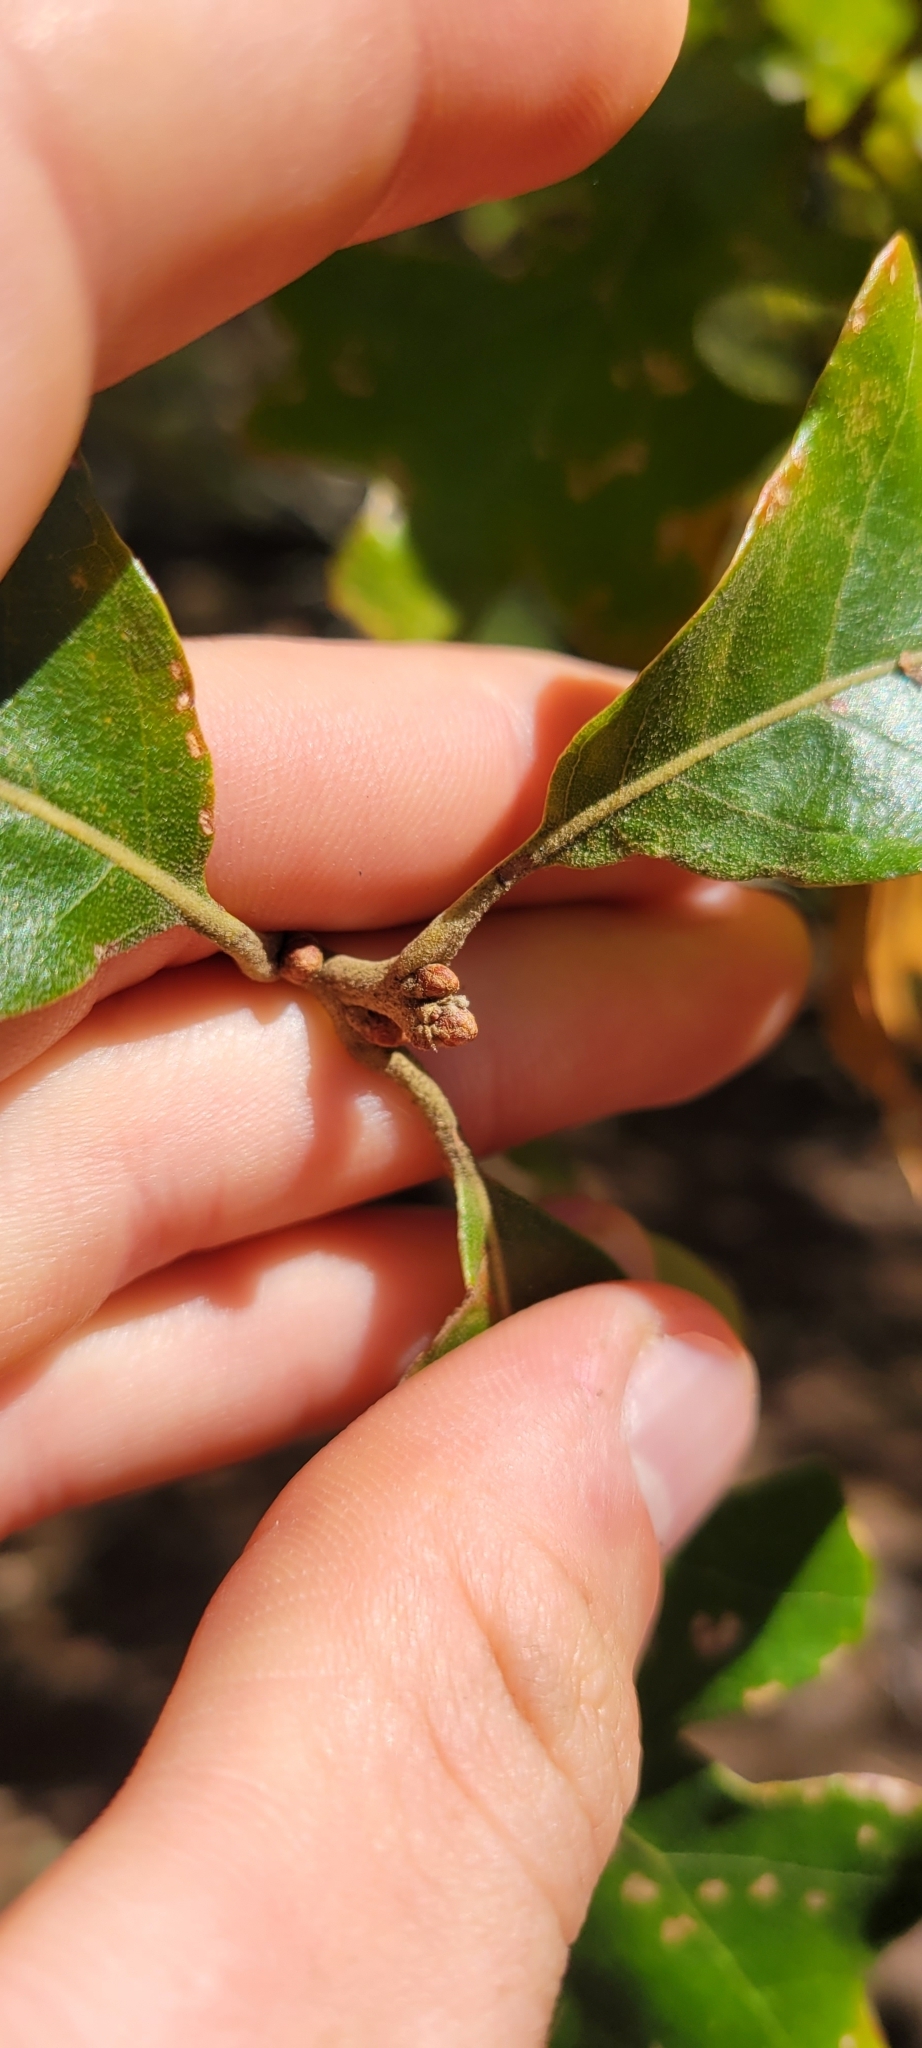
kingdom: Plantae
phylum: Tracheophyta
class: Magnoliopsida
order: Fagales
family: Fagaceae
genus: Quercus
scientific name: Quercus stellata
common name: Post oak
